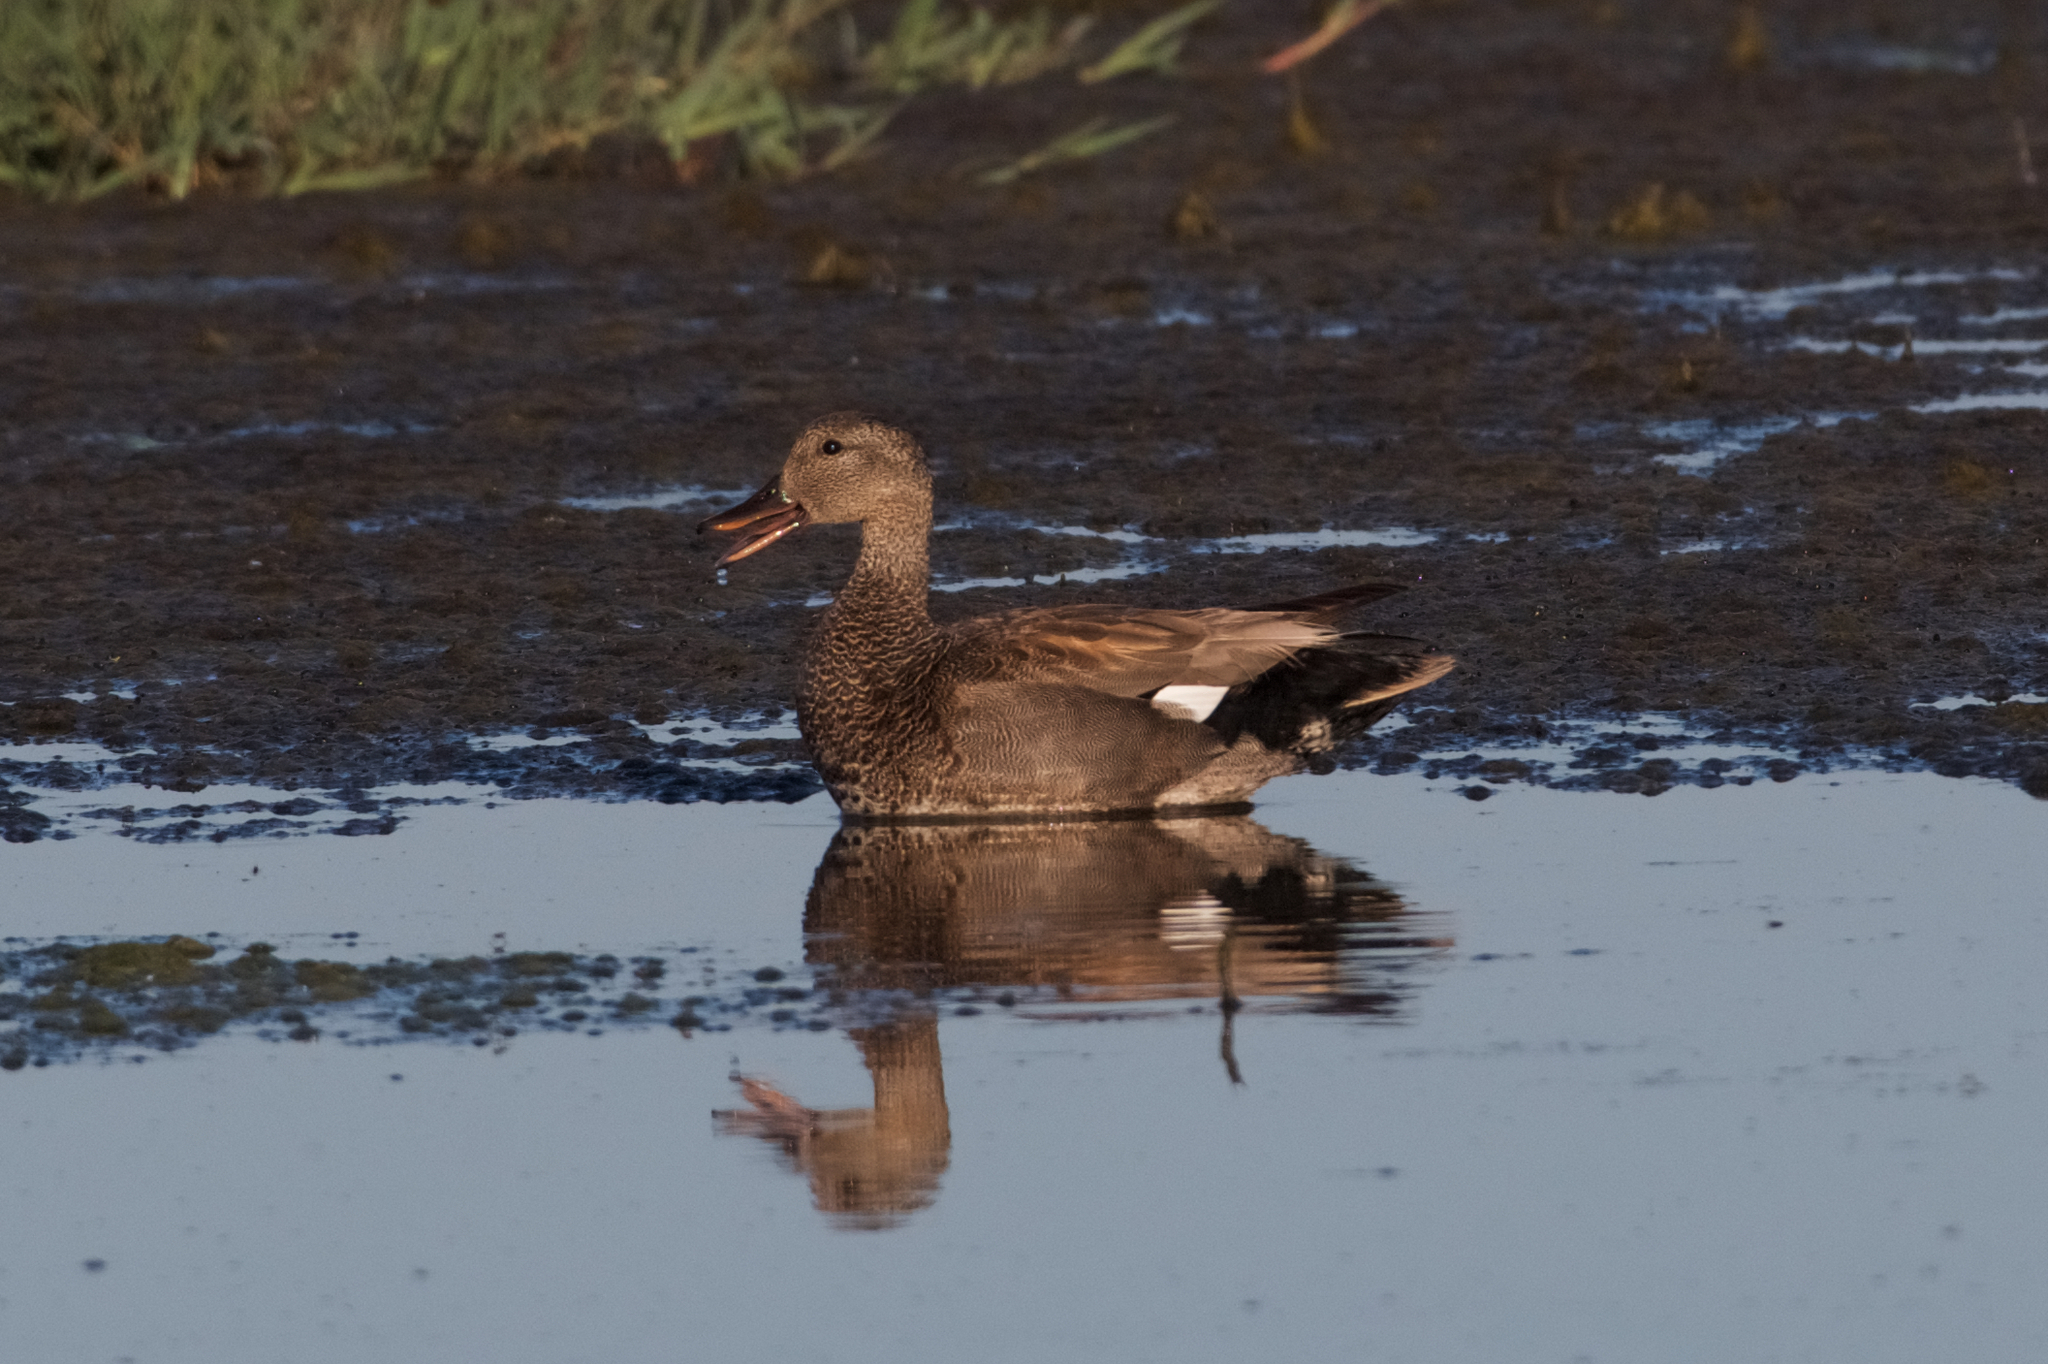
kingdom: Animalia
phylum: Chordata
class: Aves
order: Anseriformes
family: Anatidae
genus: Mareca
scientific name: Mareca strepera
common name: Gadwall
